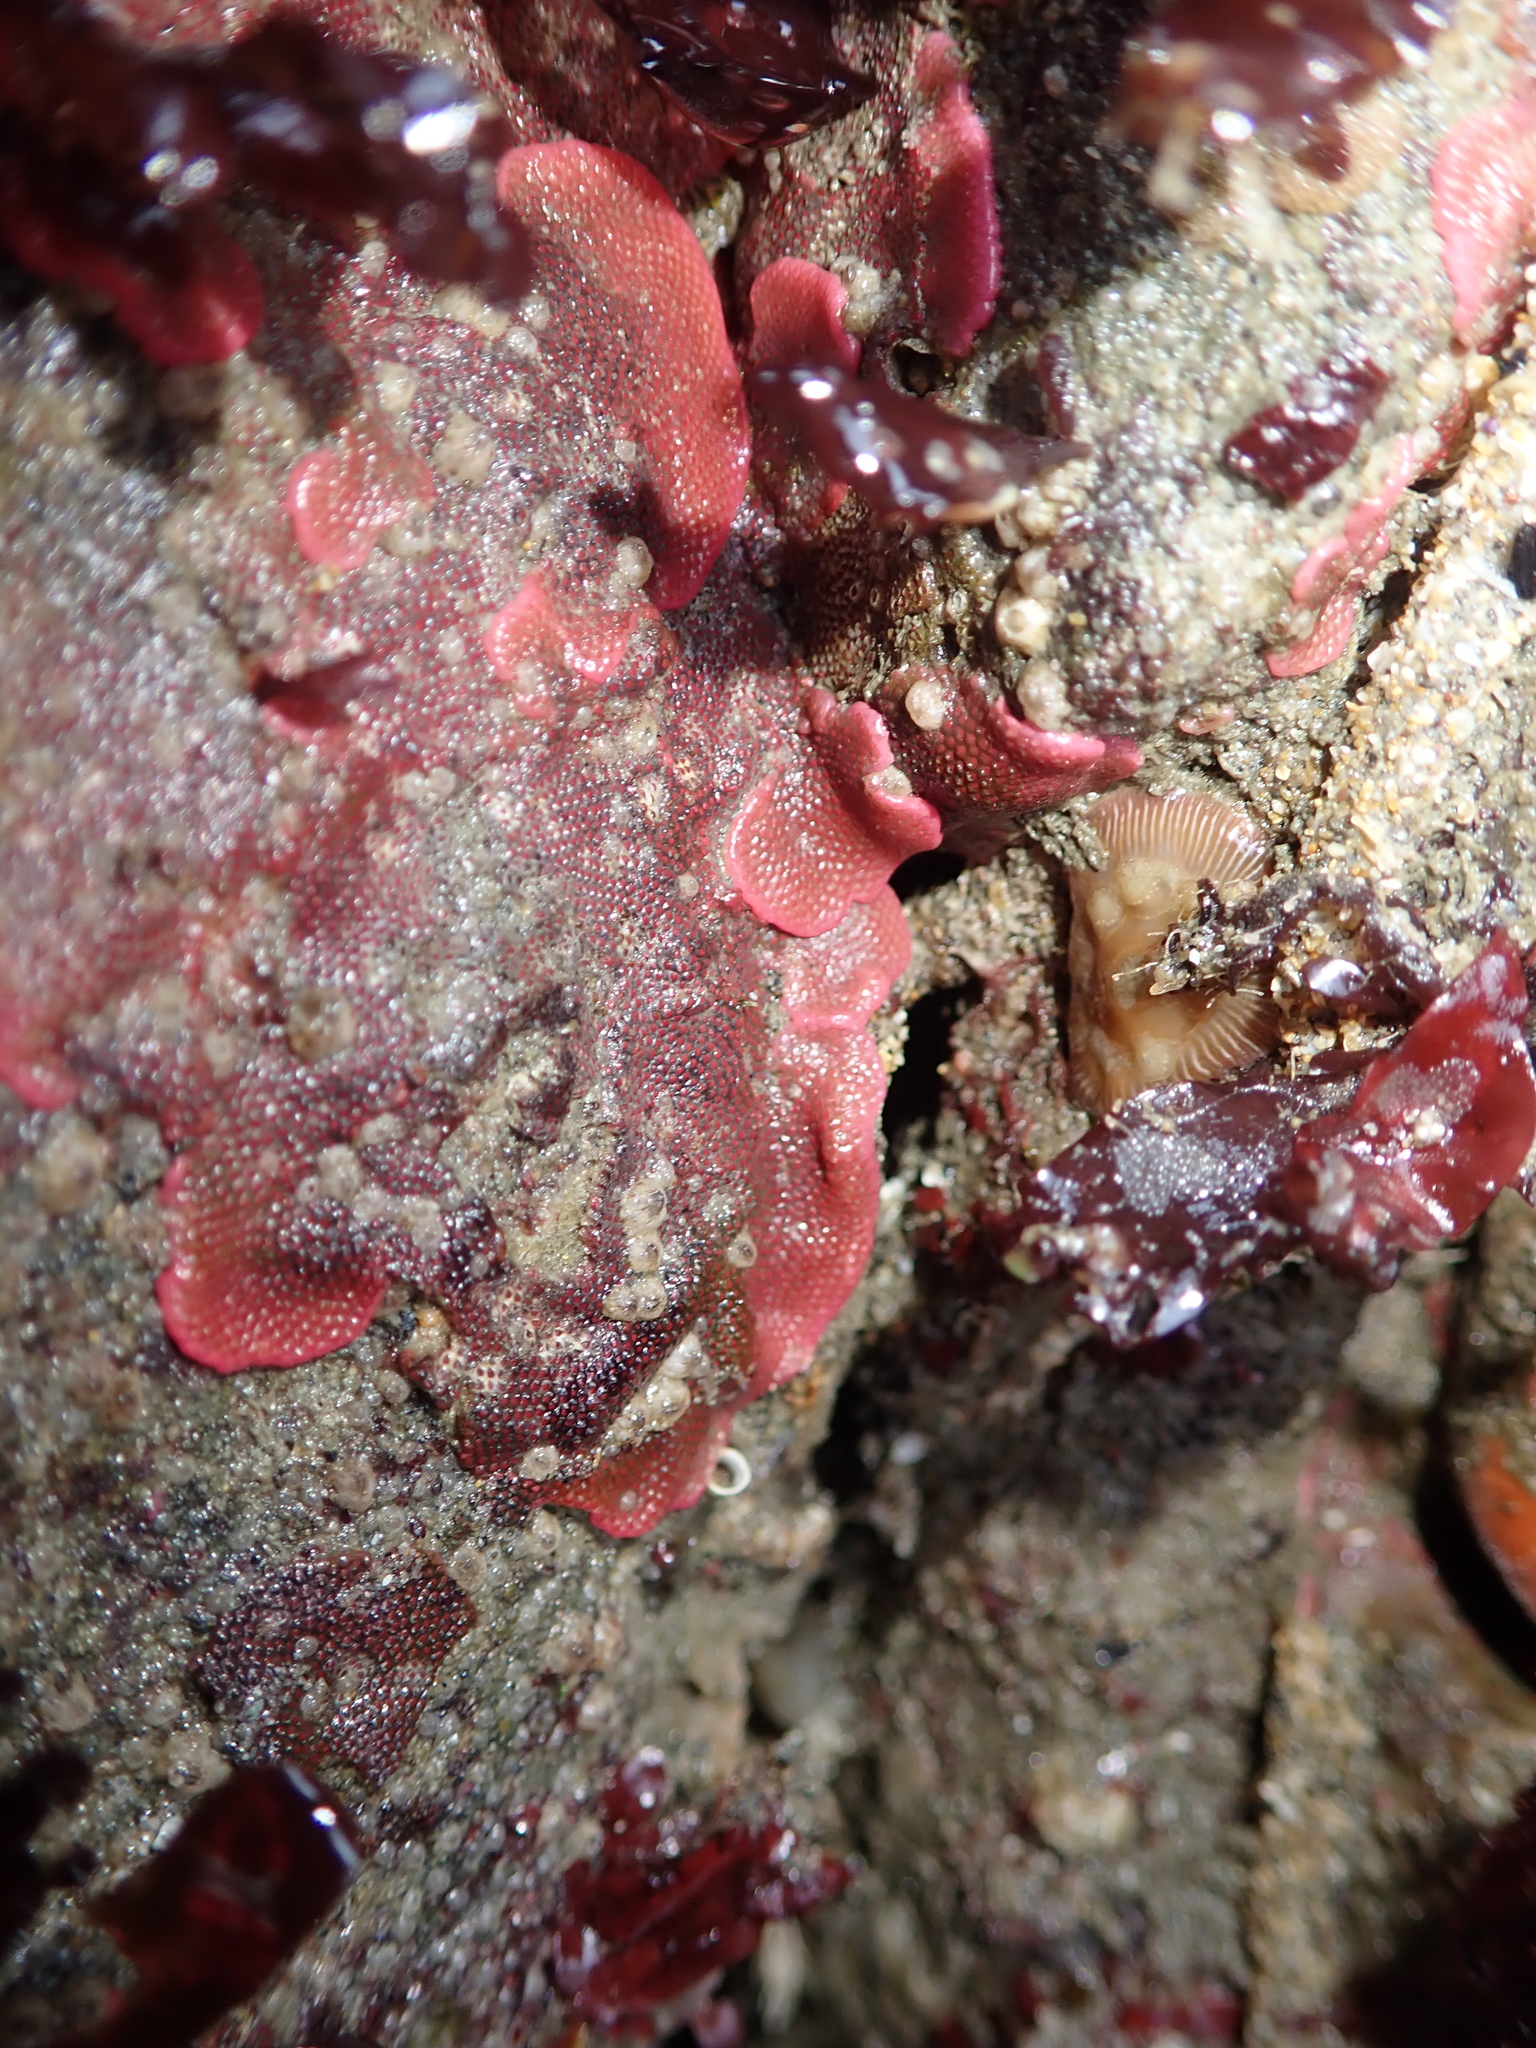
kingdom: Animalia
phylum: Bryozoa
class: Gymnolaemata
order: Cheilostomatida
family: Eurystomellidae
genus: Integripelta
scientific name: Integripelta bilabiata
